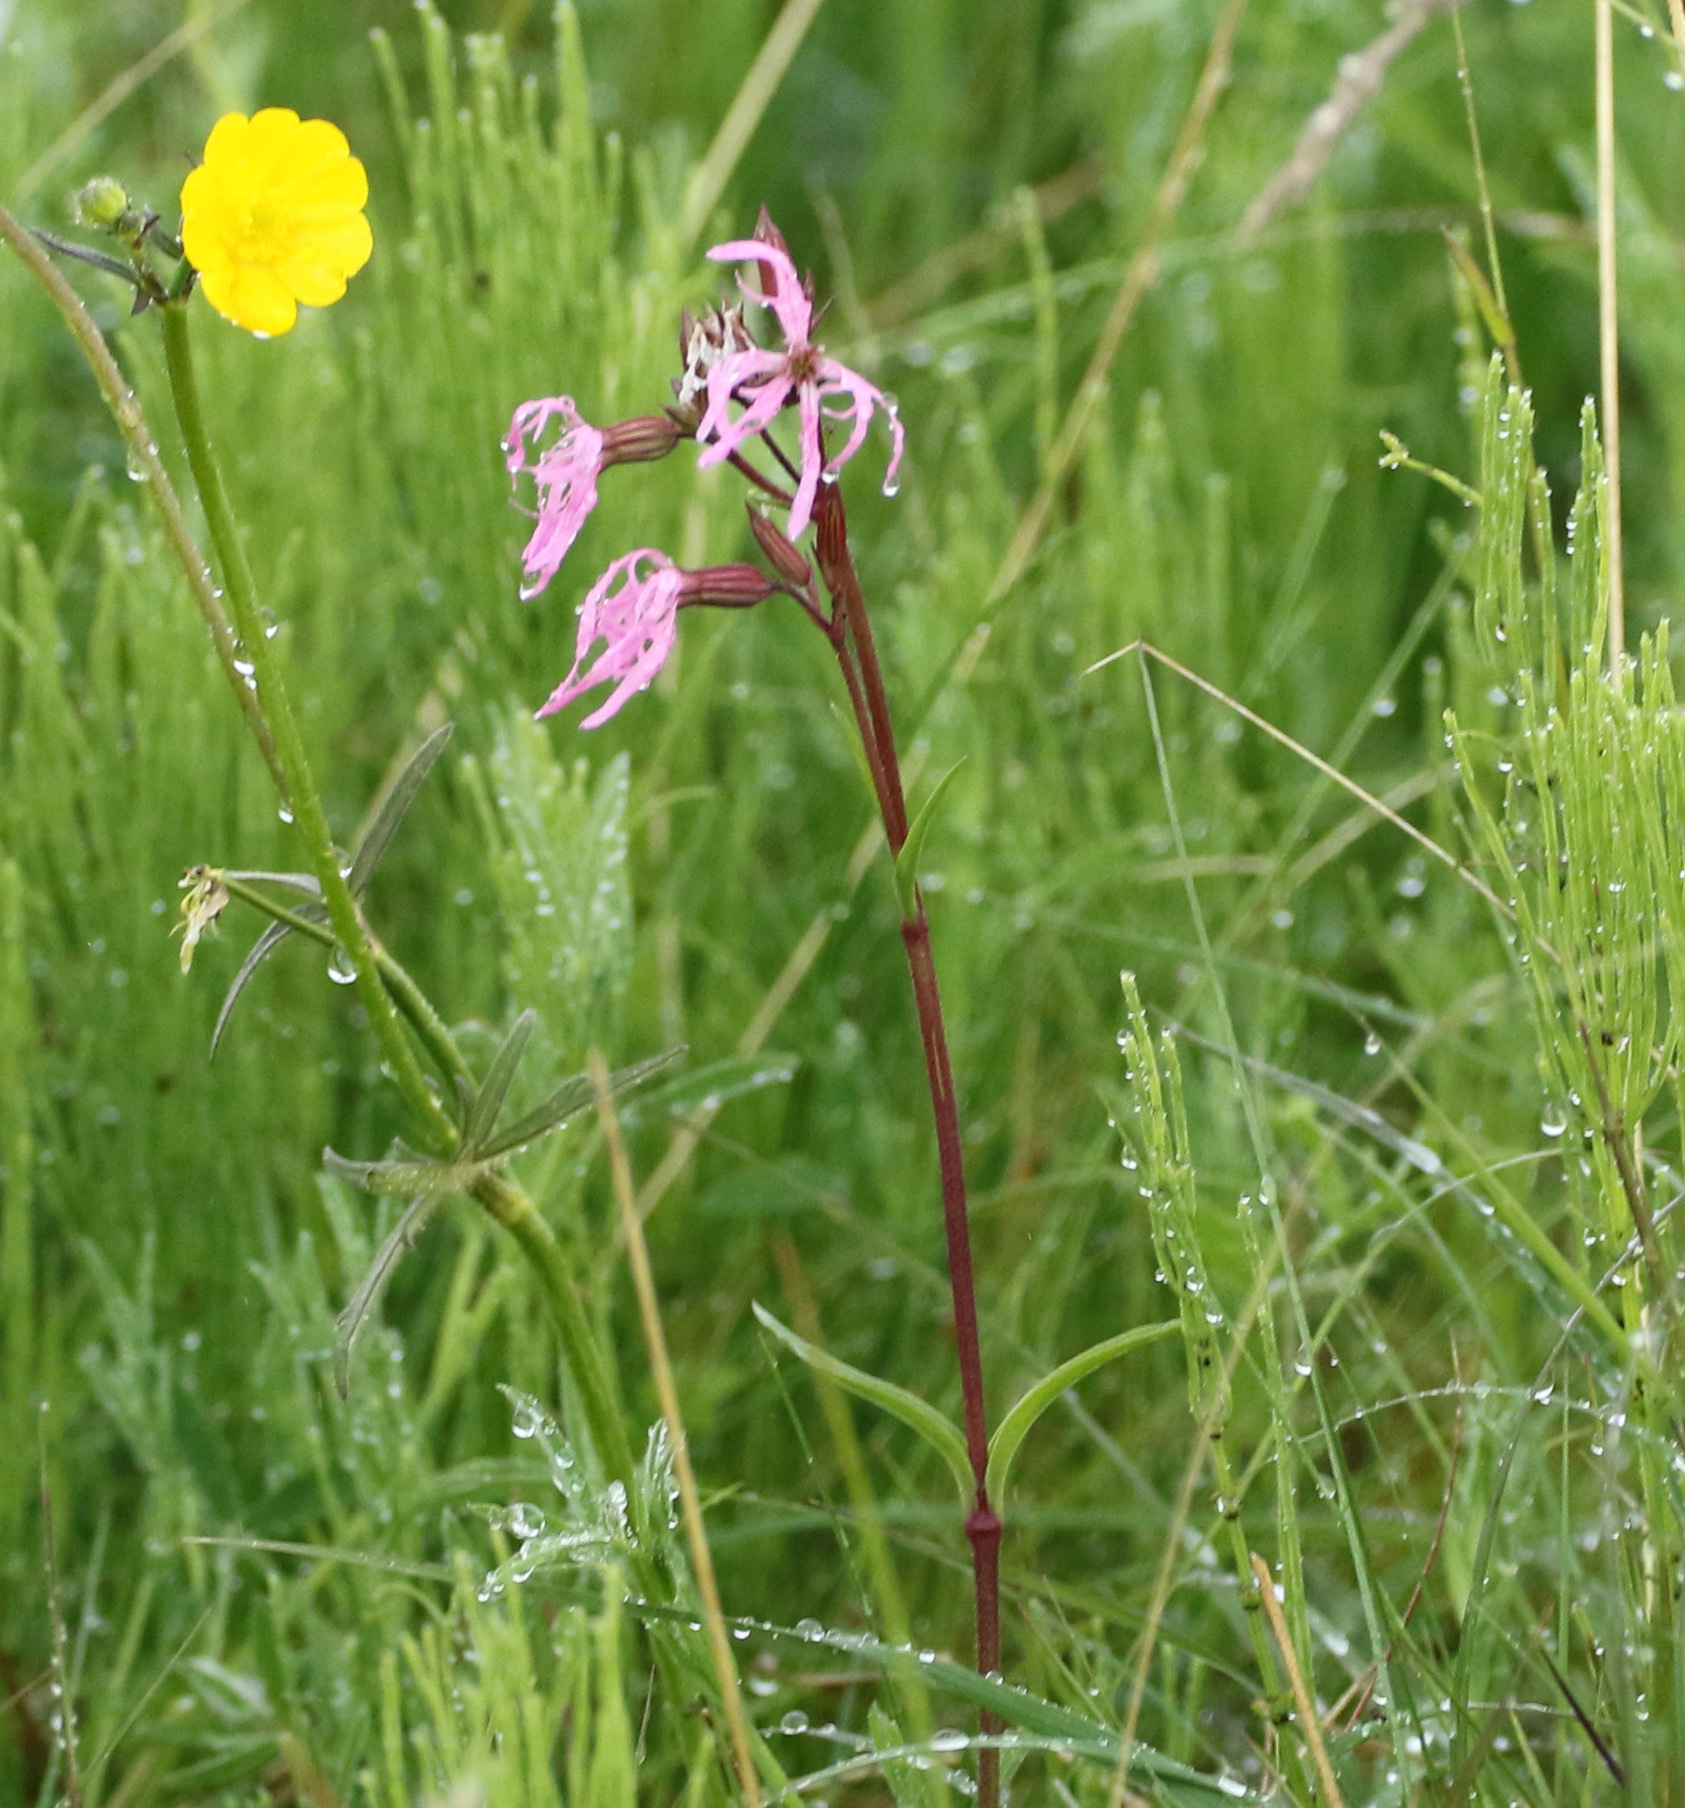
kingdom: Plantae
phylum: Tracheophyta
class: Magnoliopsida
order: Caryophyllales
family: Caryophyllaceae
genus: Silene
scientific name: Silene flos-cuculi
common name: Ragged-robin
